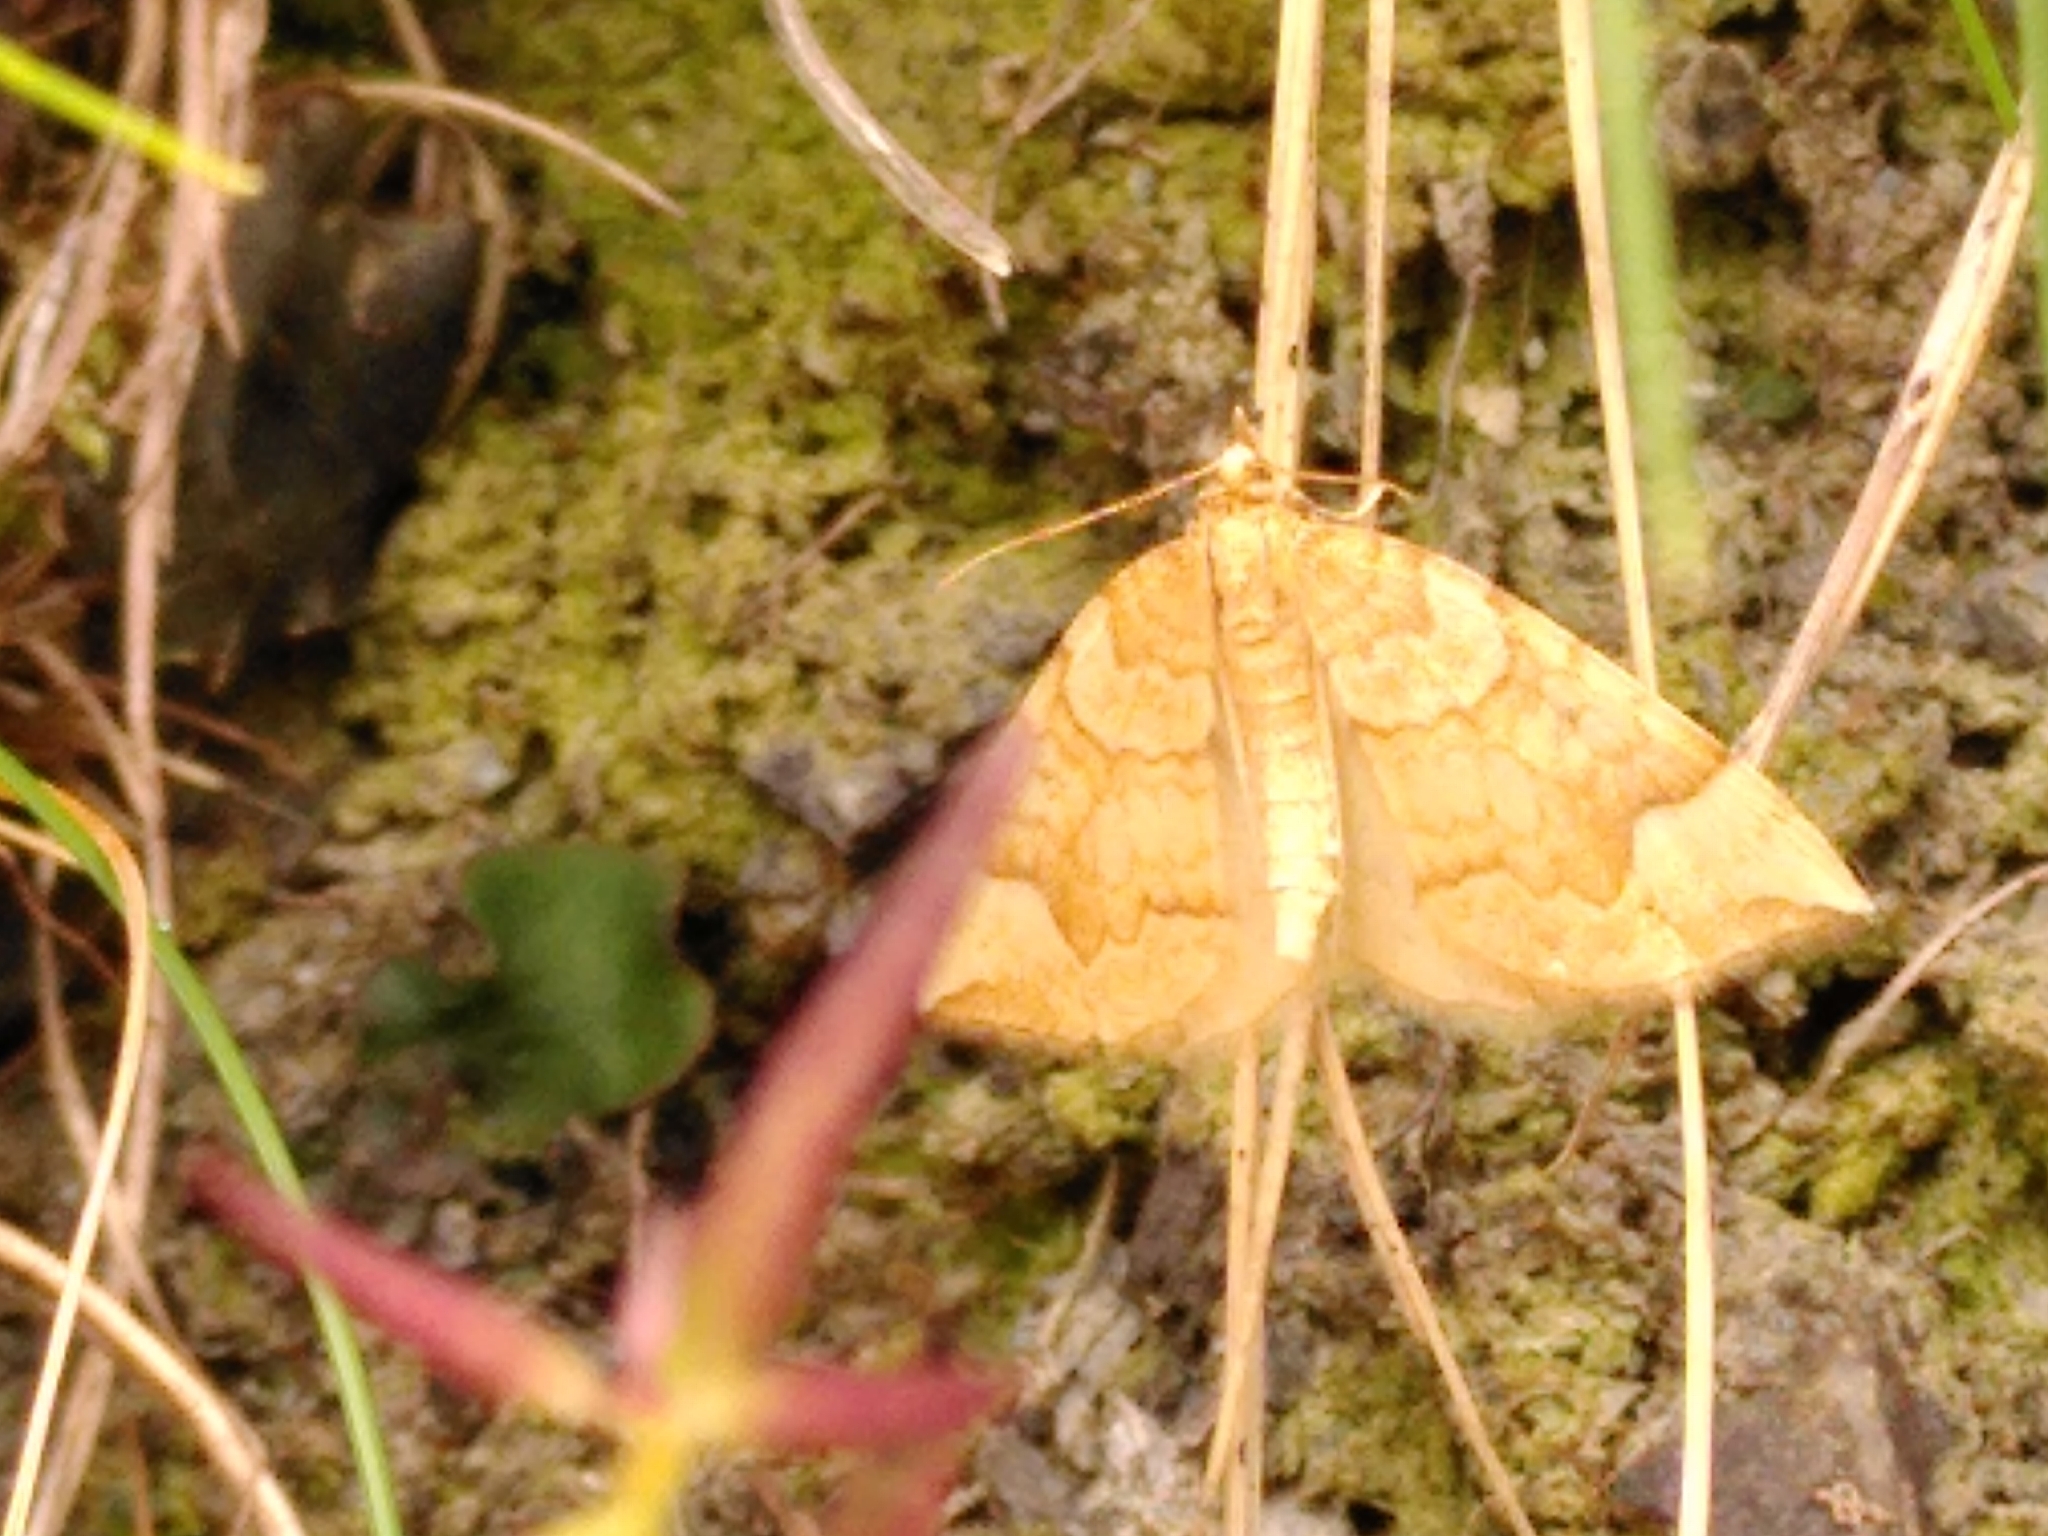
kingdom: Animalia
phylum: Arthropoda
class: Insecta
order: Lepidoptera
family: Geometridae
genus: Eulithis
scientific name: Eulithis populata
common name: Northern spinach
